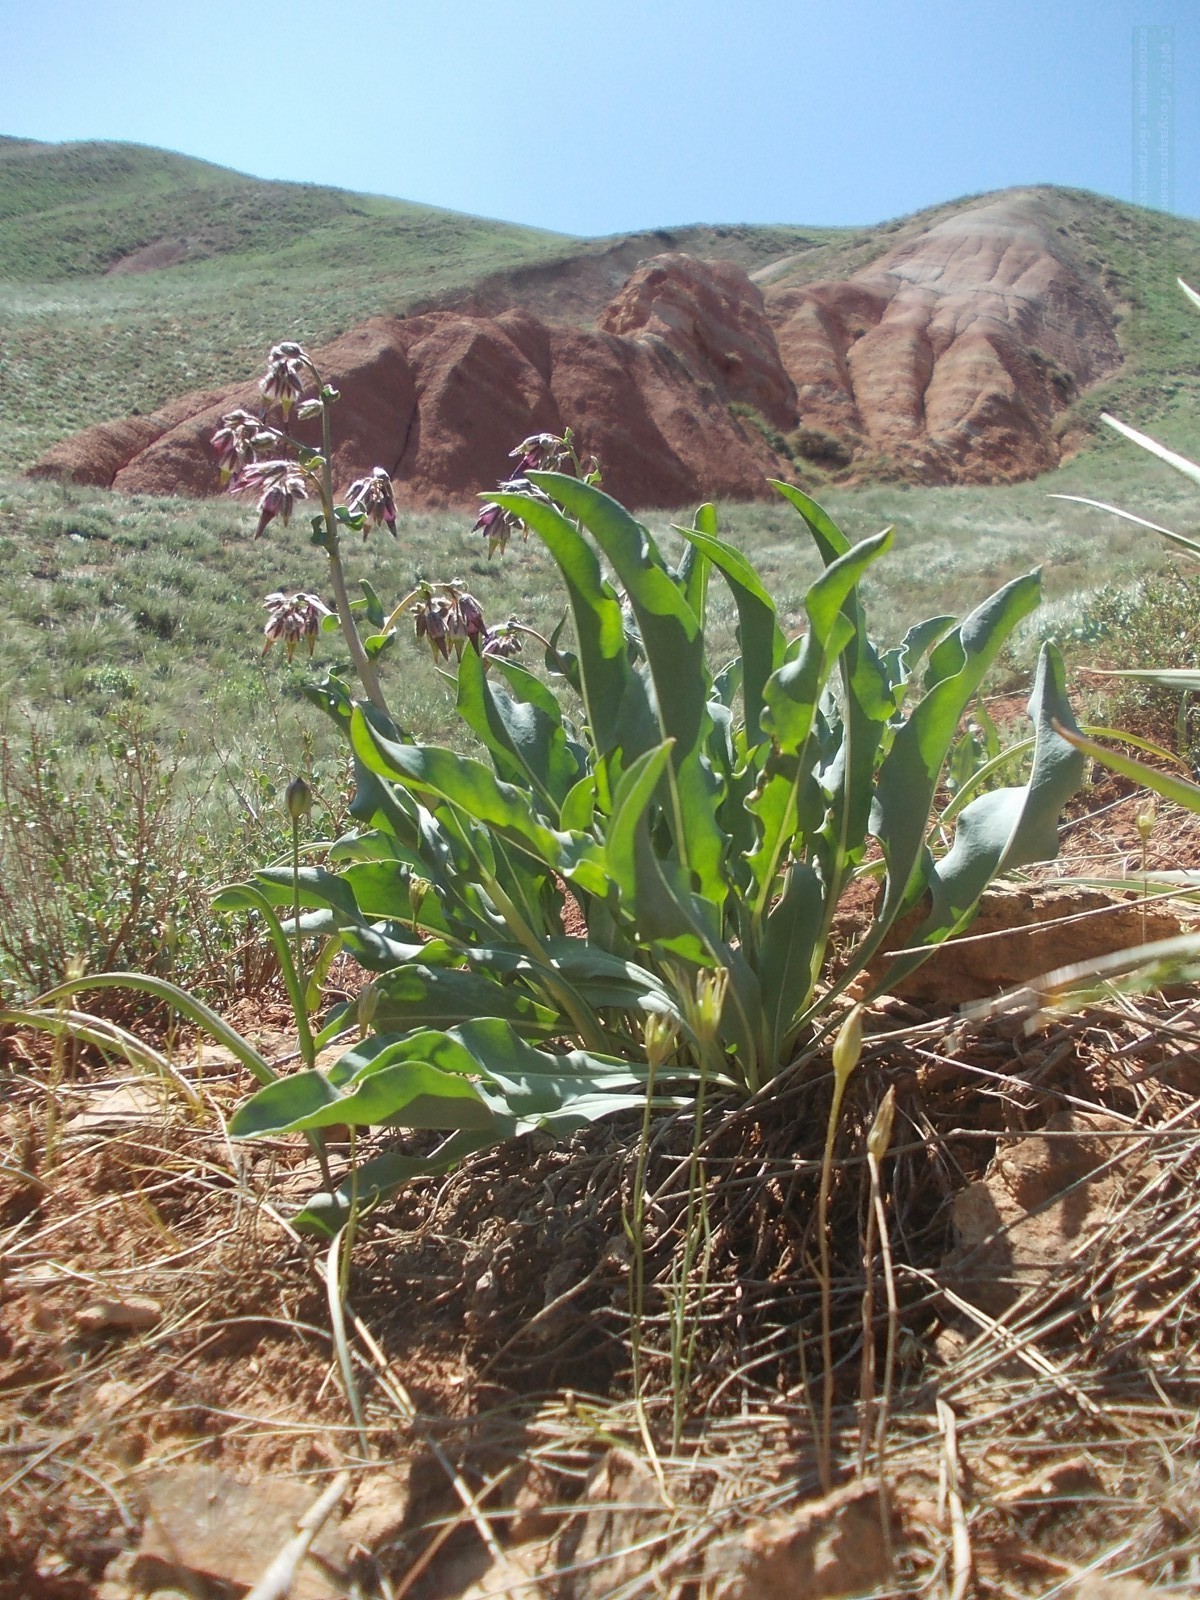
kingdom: Plantae
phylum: Tracheophyta
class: Magnoliopsida
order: Boraginales
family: Boraginaceae
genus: Rindera
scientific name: Rindera tetraspis
